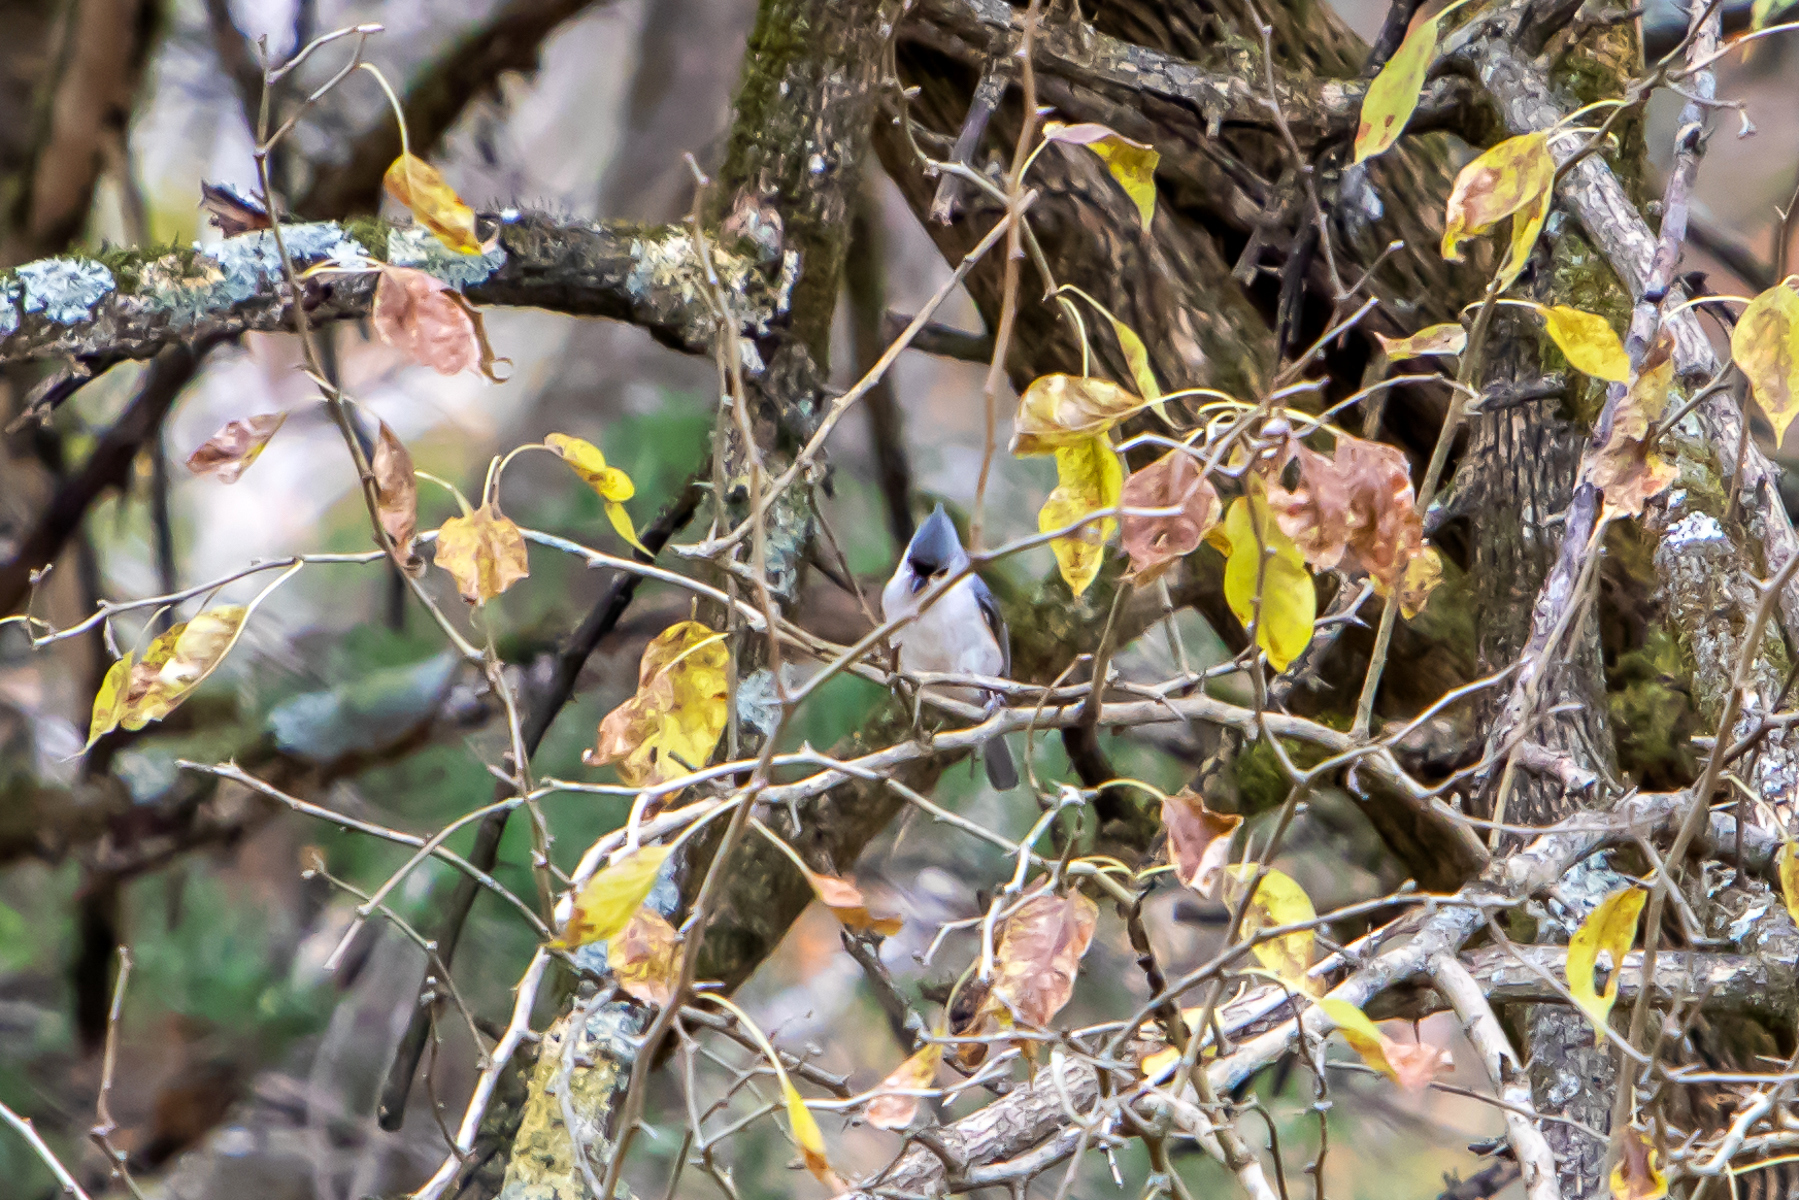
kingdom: Animalia
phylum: Chordata
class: Aves
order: Passeriformes
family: Paridae
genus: Baeolophus
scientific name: Baeolophus bicolor
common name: Tufted titmouse
